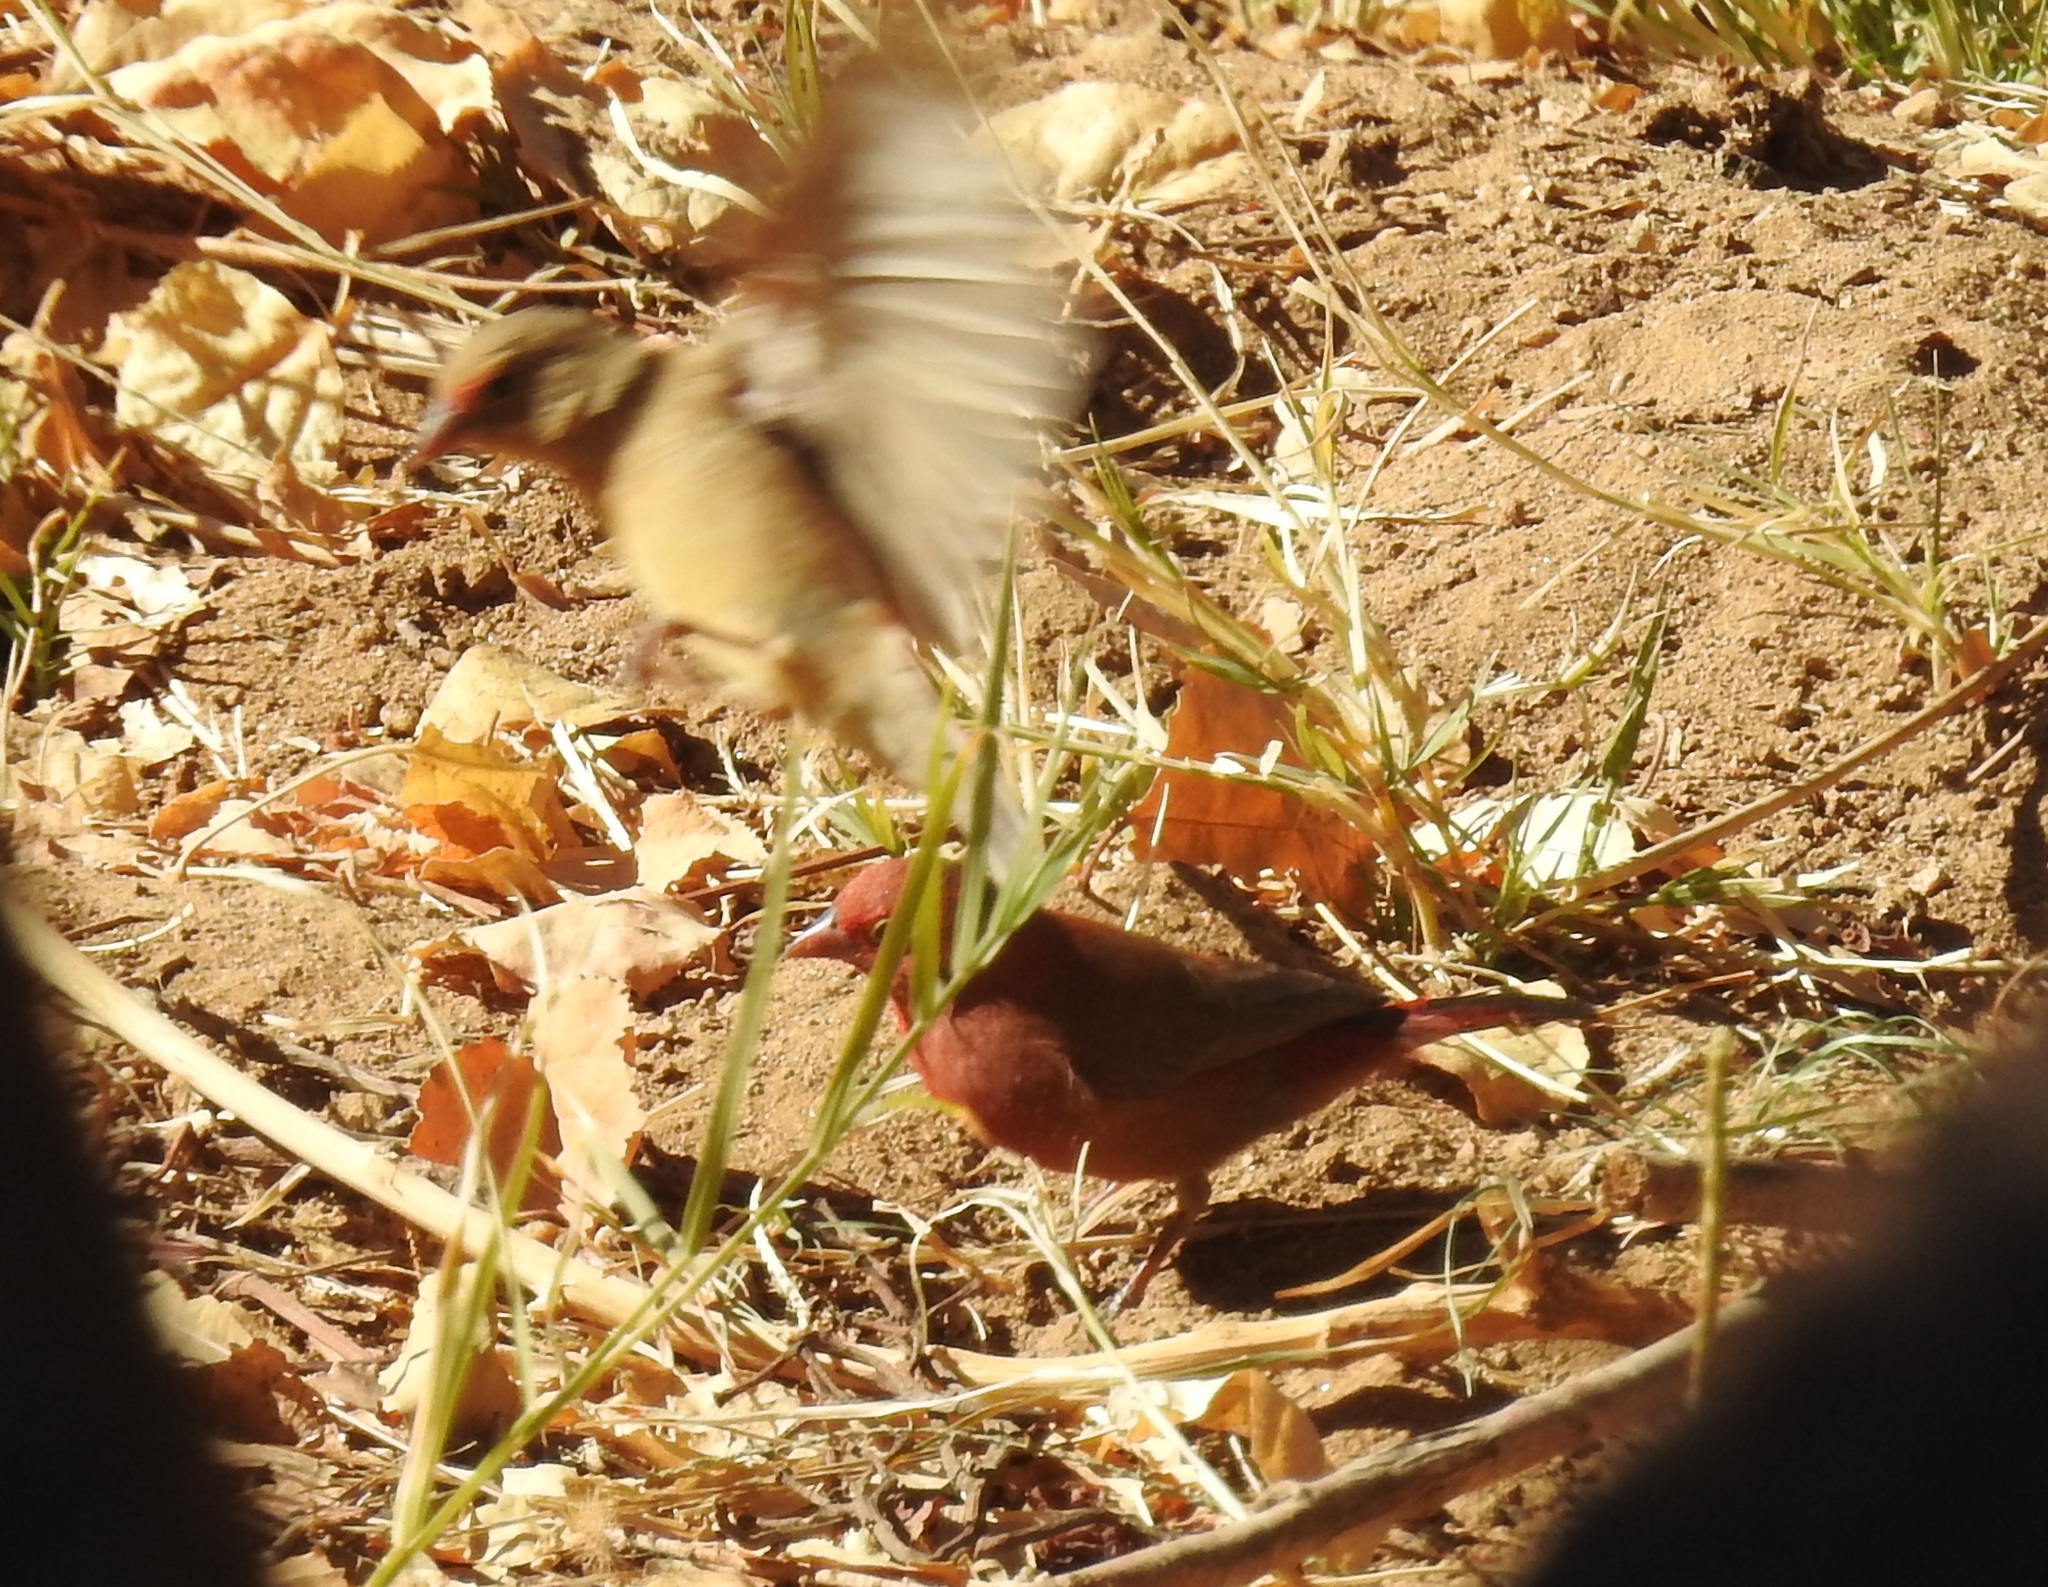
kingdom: Animalia
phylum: Chordata
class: Aves
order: Passeriformes
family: Estrildidae
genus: Lagonosticta
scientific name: Lagonosticta senegala
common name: Red-billed firefinch
